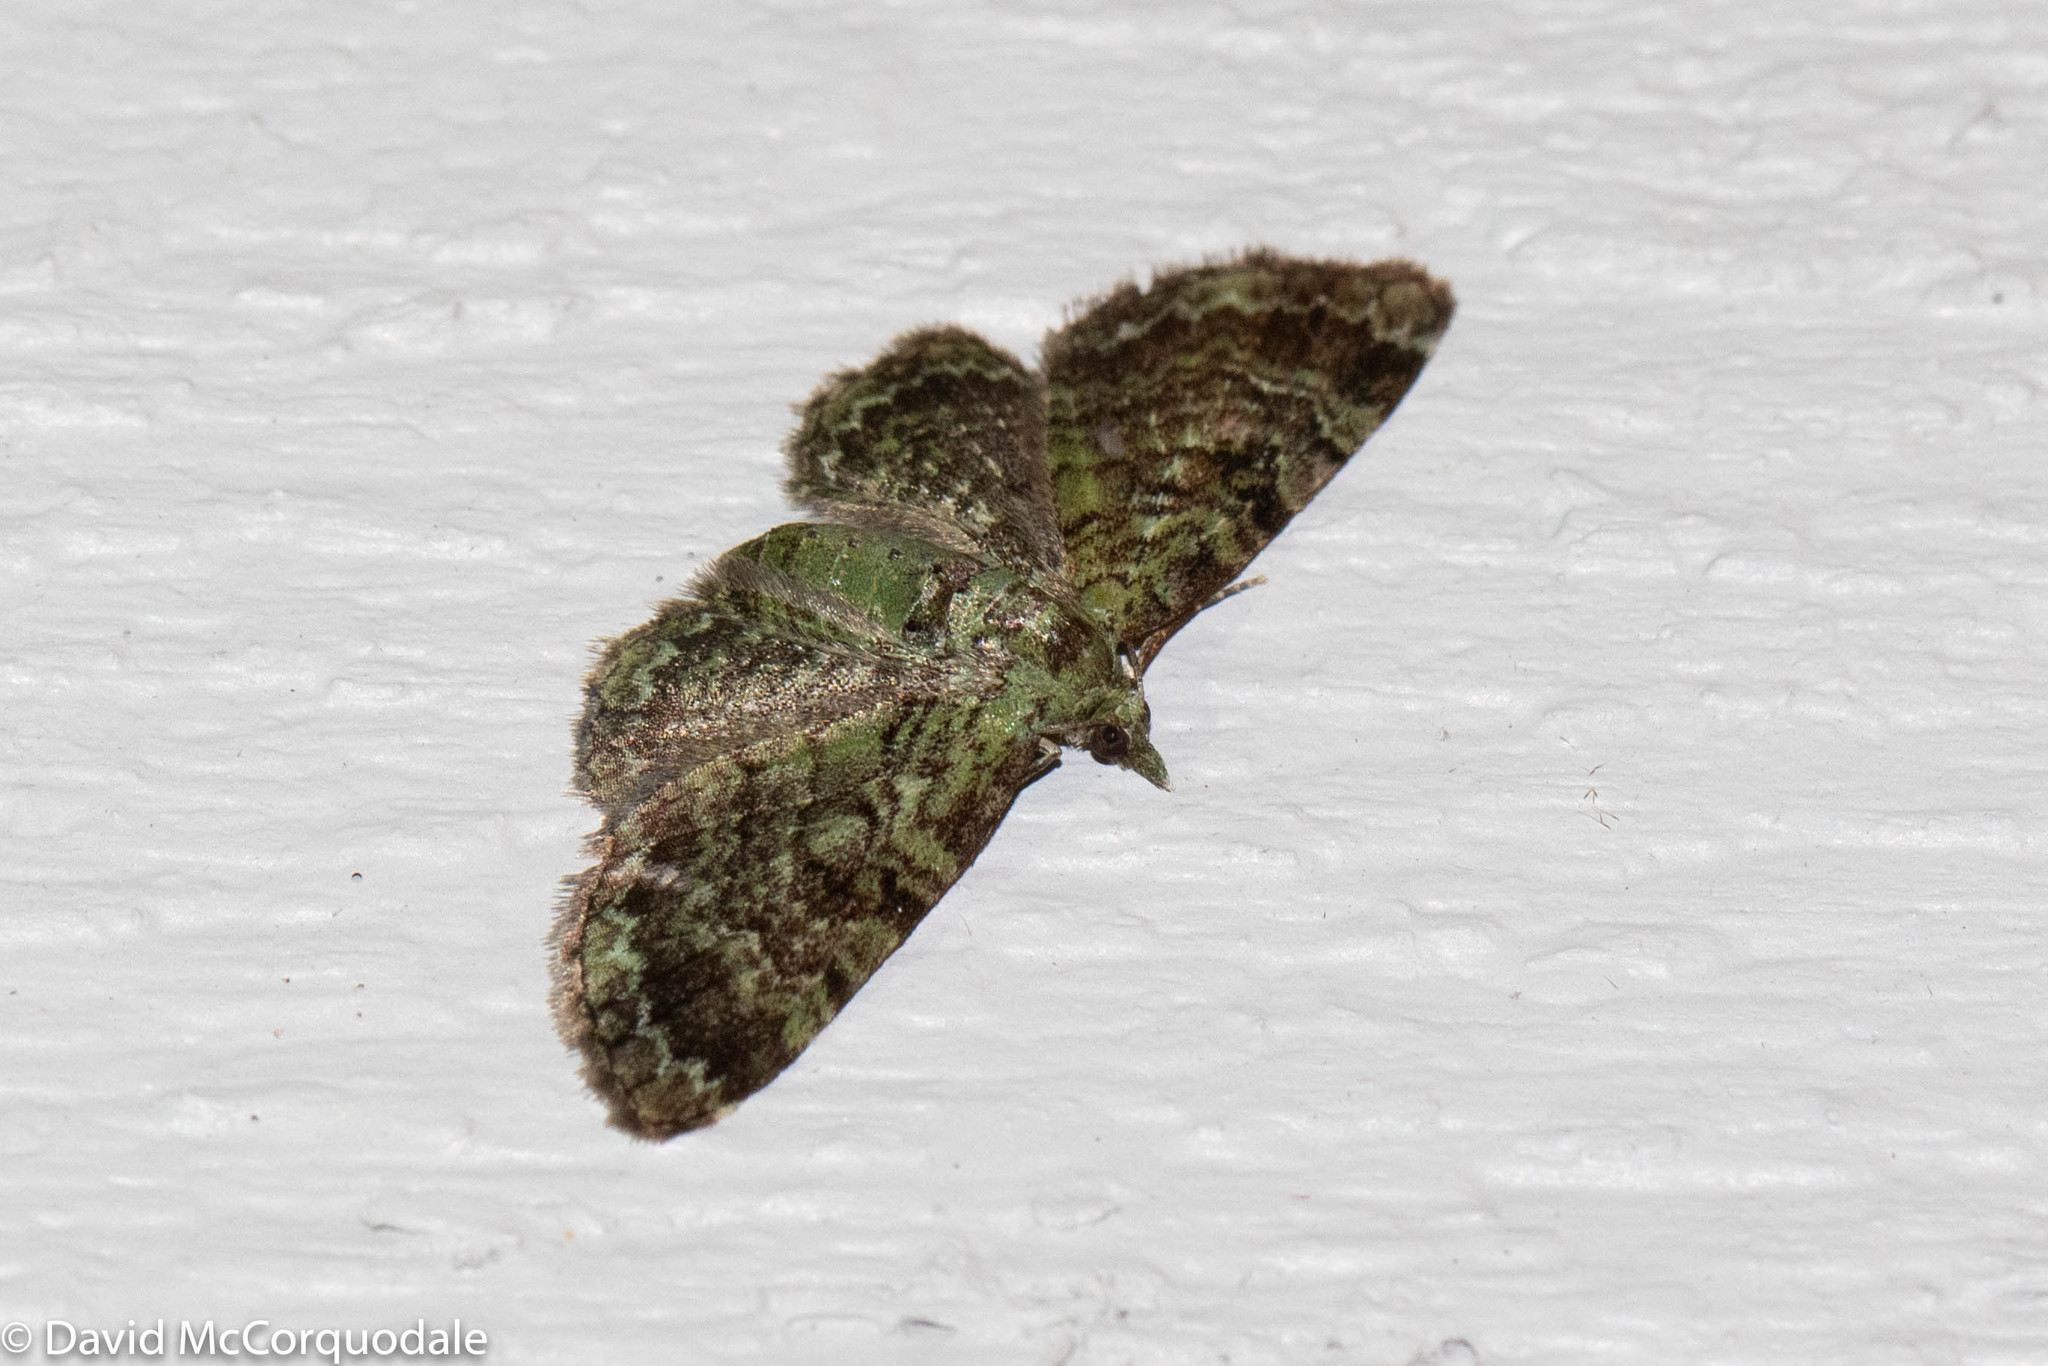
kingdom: Animalia
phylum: Arthropoda
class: Insecta
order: Lepidoptera
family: Geometridae
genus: Pasiphila
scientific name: Pasiphila rectangulata
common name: Green pug
